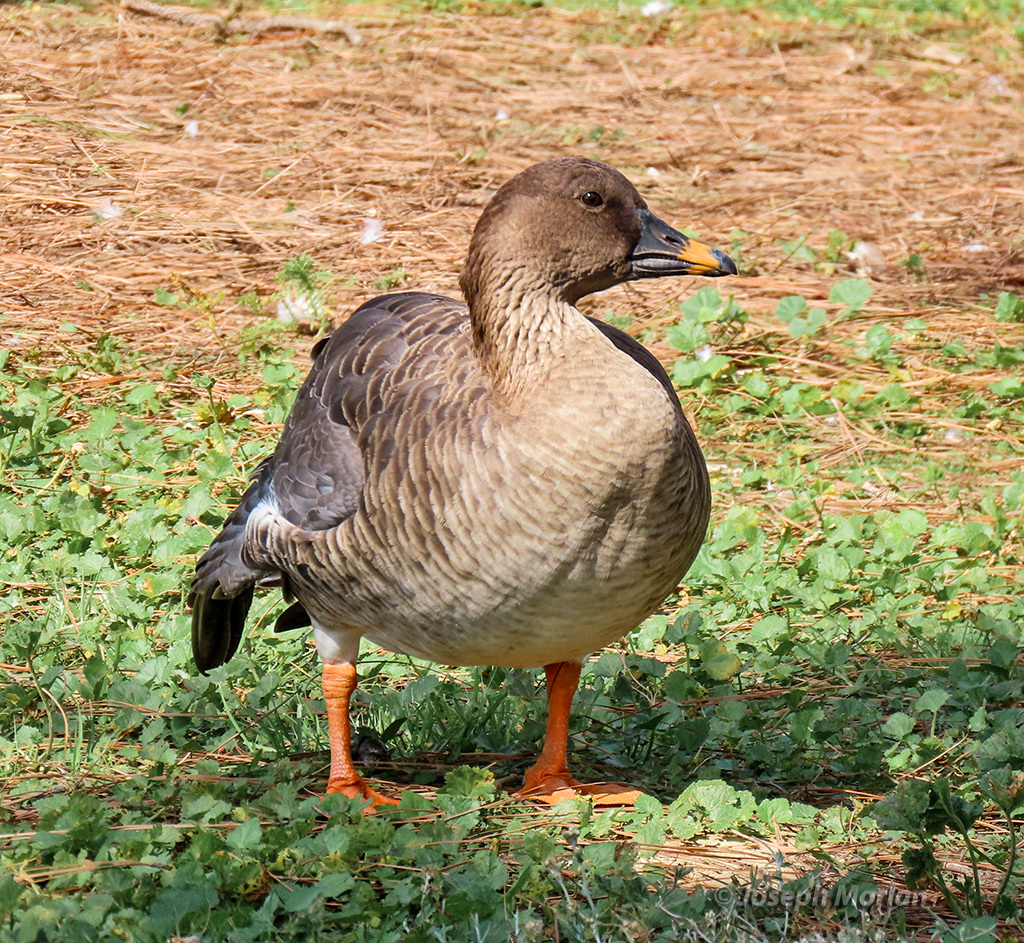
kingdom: Animalia
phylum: Chordata
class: Aves
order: Anseriformes
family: Anatidae
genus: Anser
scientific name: Anser serrirostris
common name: Tundra bean goose
